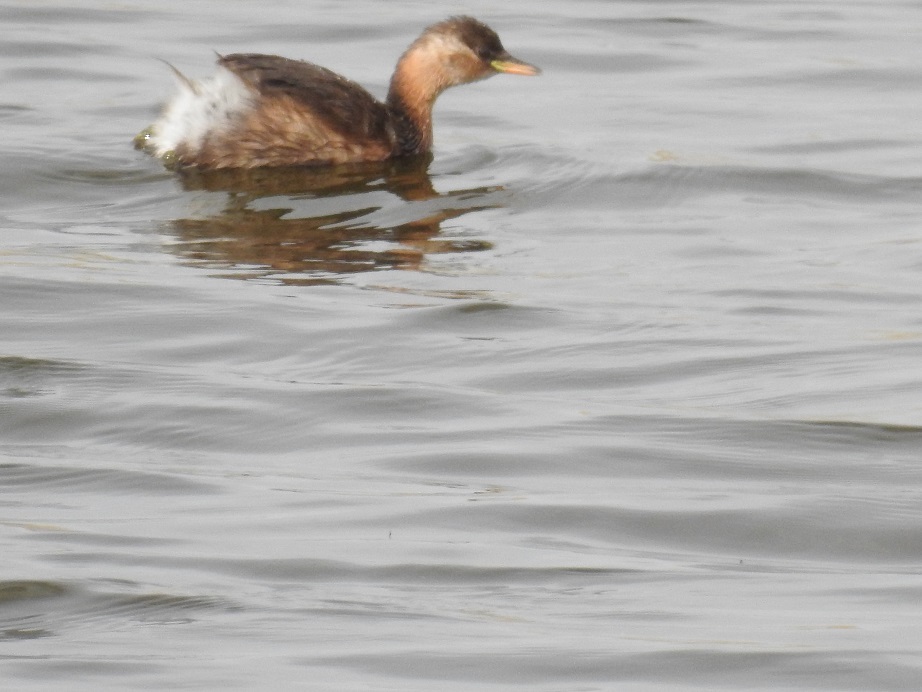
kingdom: Animalia
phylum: Chordata
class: Aves
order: Podicipediformes
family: Podicipedidae
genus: Tachybaptus
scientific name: Tachybaptus ruficollis
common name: Little grebe
